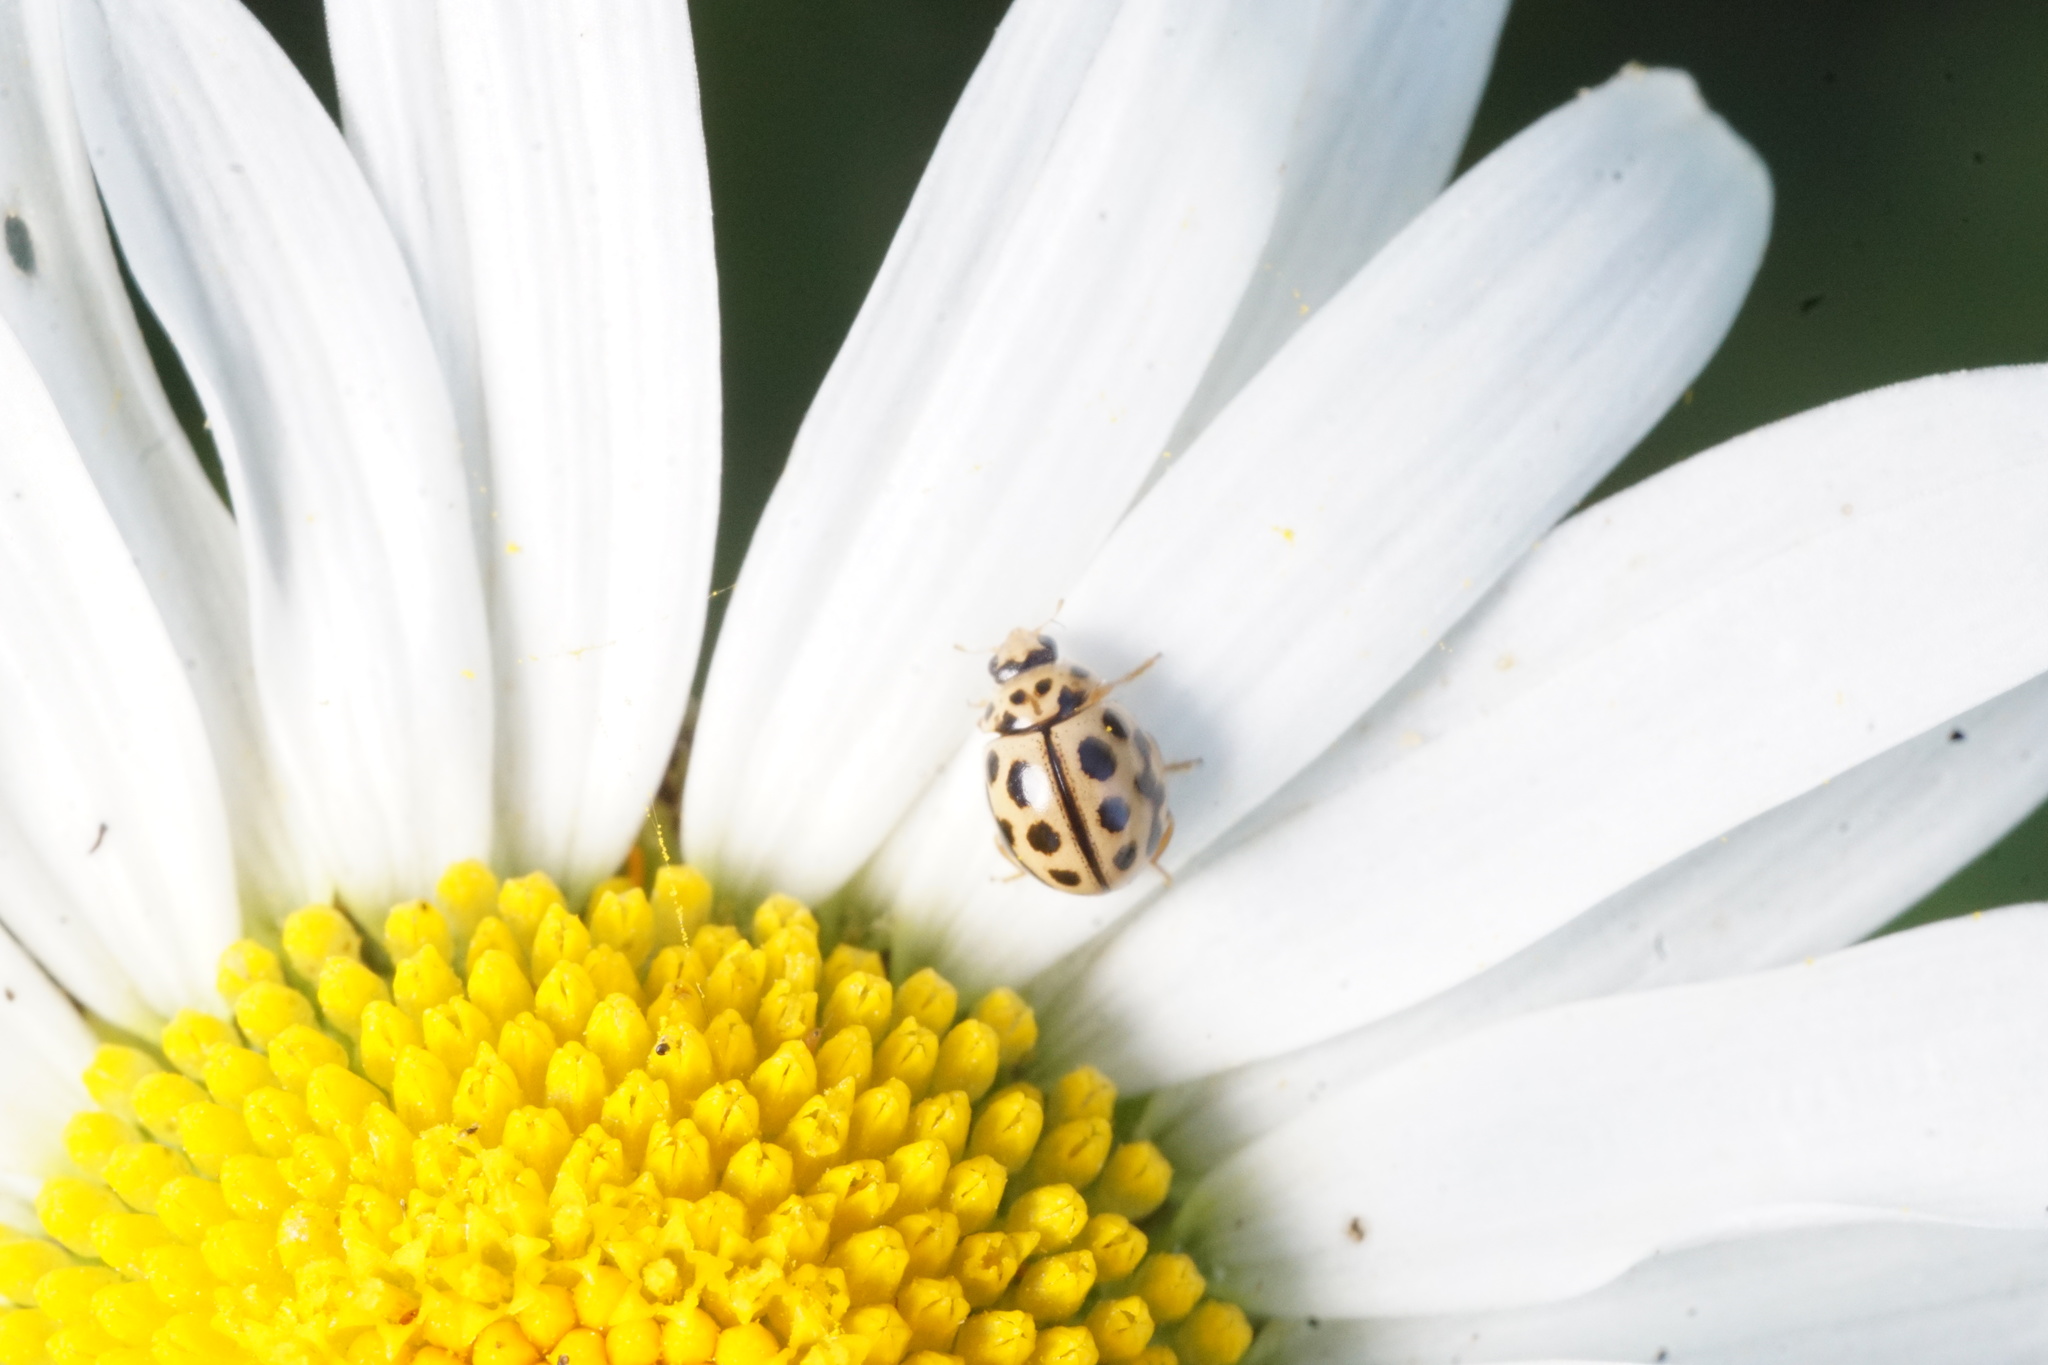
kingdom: Animalia
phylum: Arthropoda
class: Insecta
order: Coleoptera
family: Coccinellidae
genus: Tytthaspis
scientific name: Tytthaspis sedecimpunctata
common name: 16-spot ladybird
